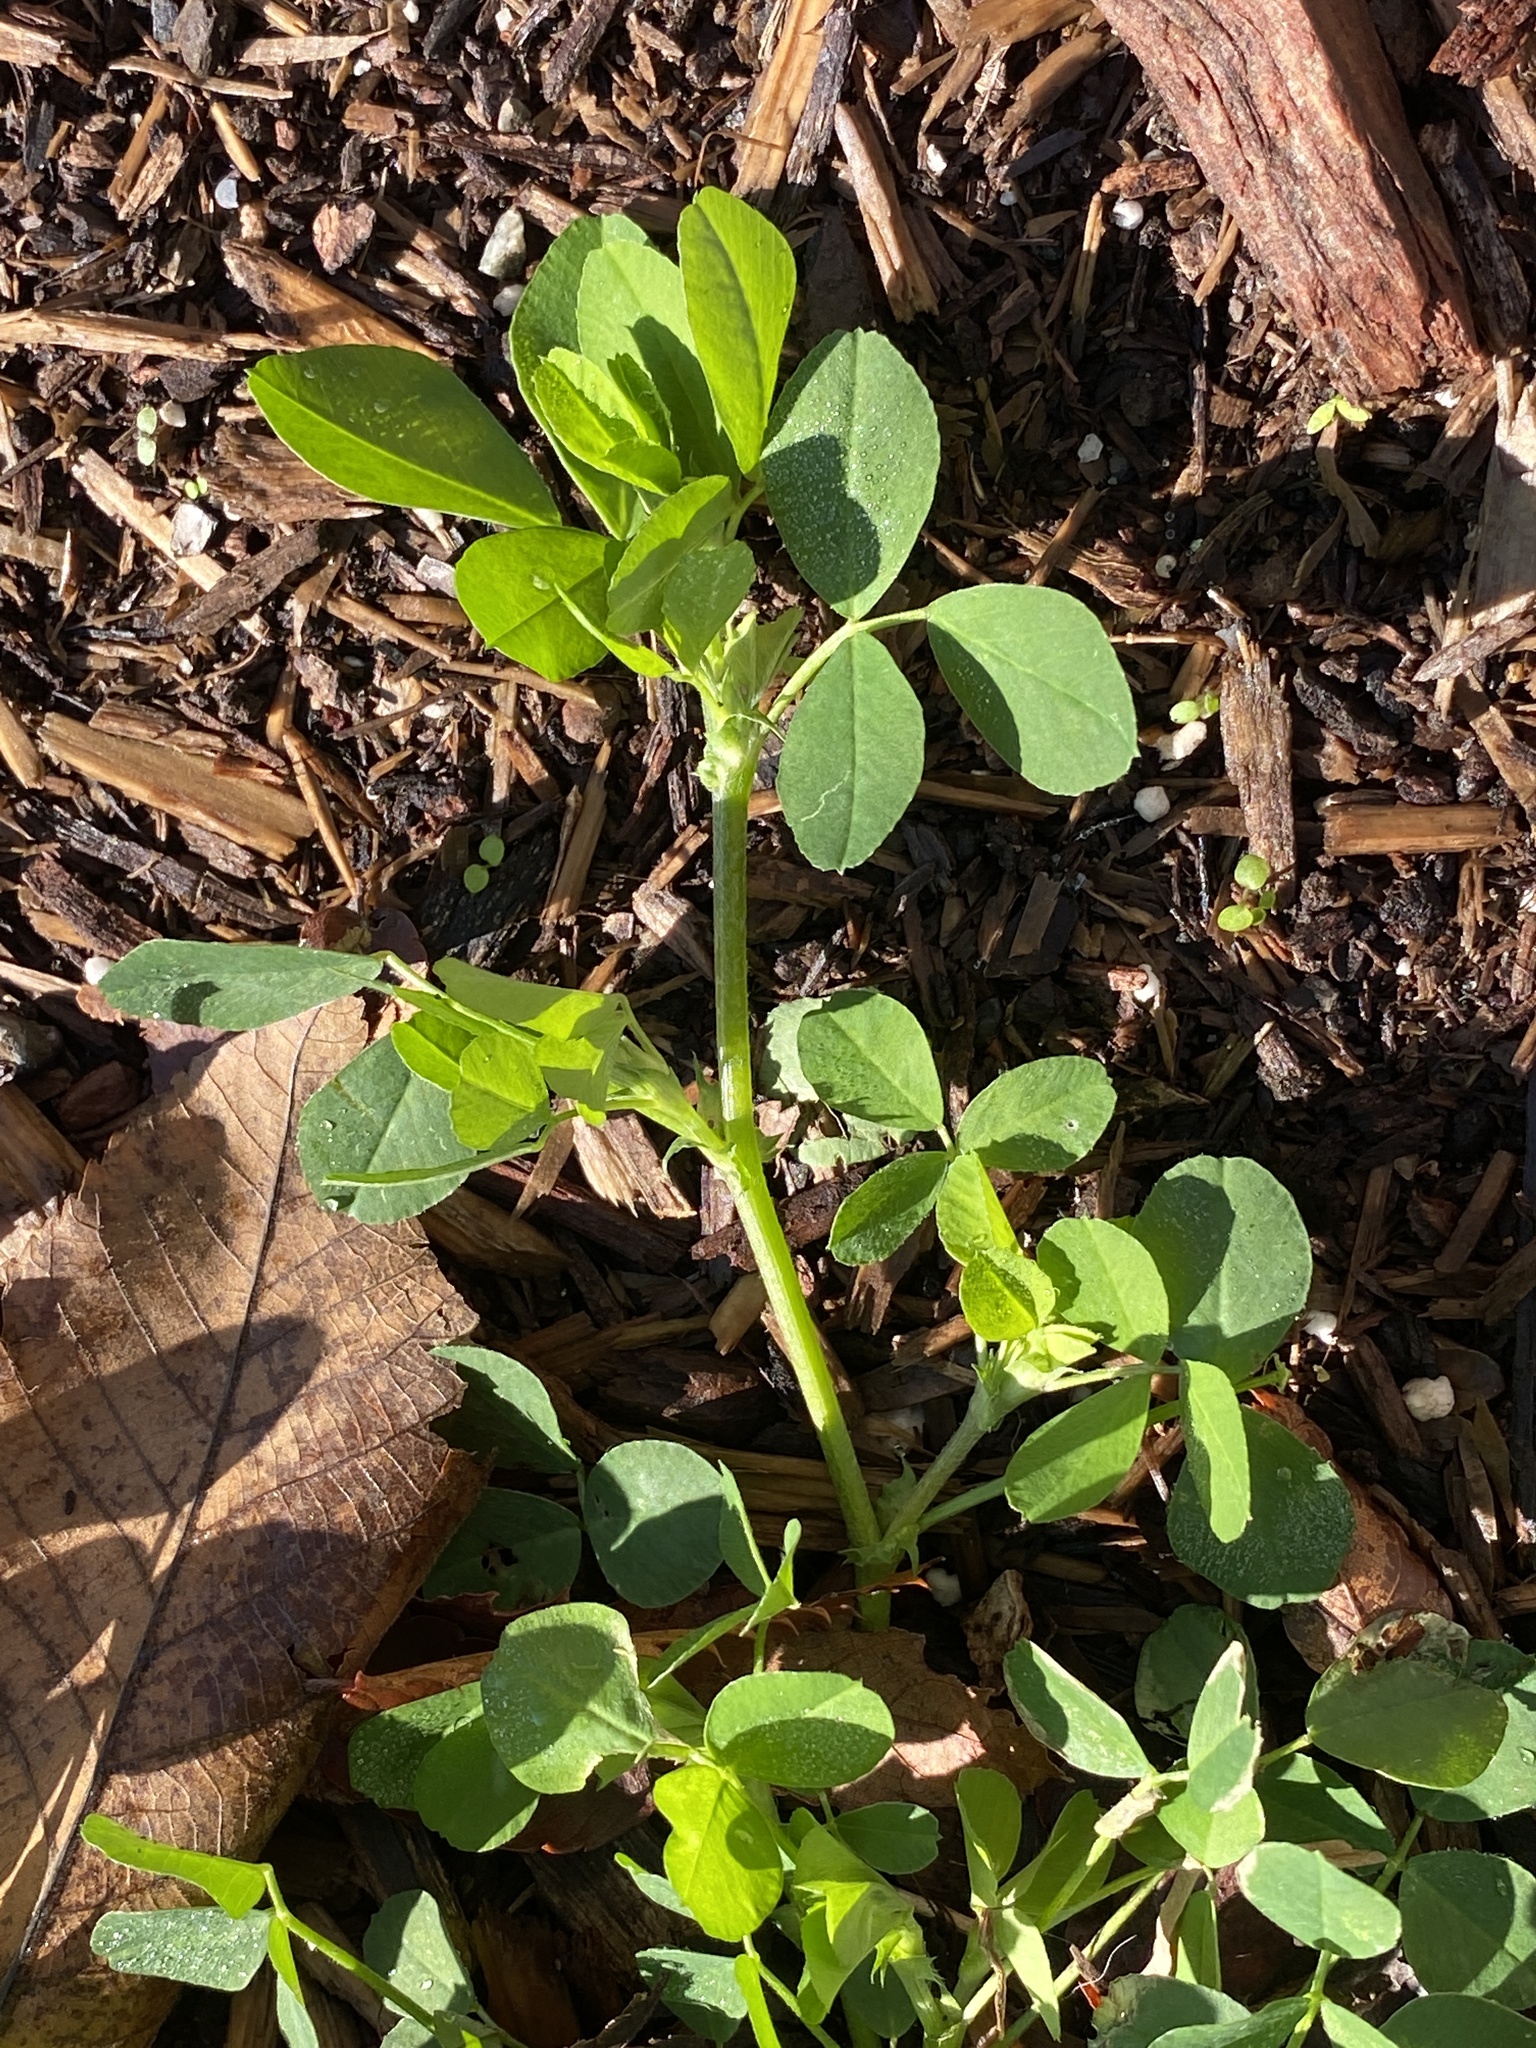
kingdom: Plantae
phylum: Tracheophyta
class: Magnoliopsida
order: Fabales
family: Fabaceae
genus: Medicago
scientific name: Medicago lupulina
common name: Black medick
